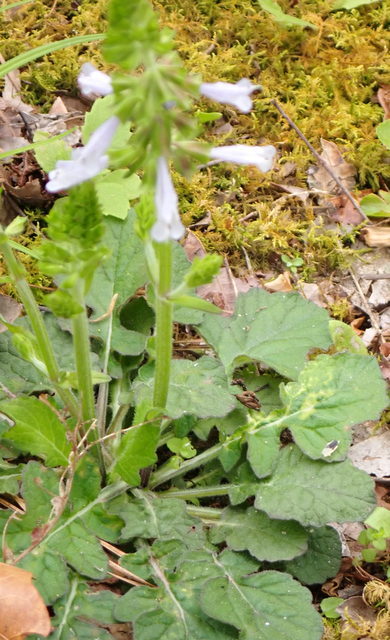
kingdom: Plantae
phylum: Tracheophyta
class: Magnoliopsida
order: Lamiales
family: Lamiaceae
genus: Salvia
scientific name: Salvia lyrata
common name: Cancerweed
